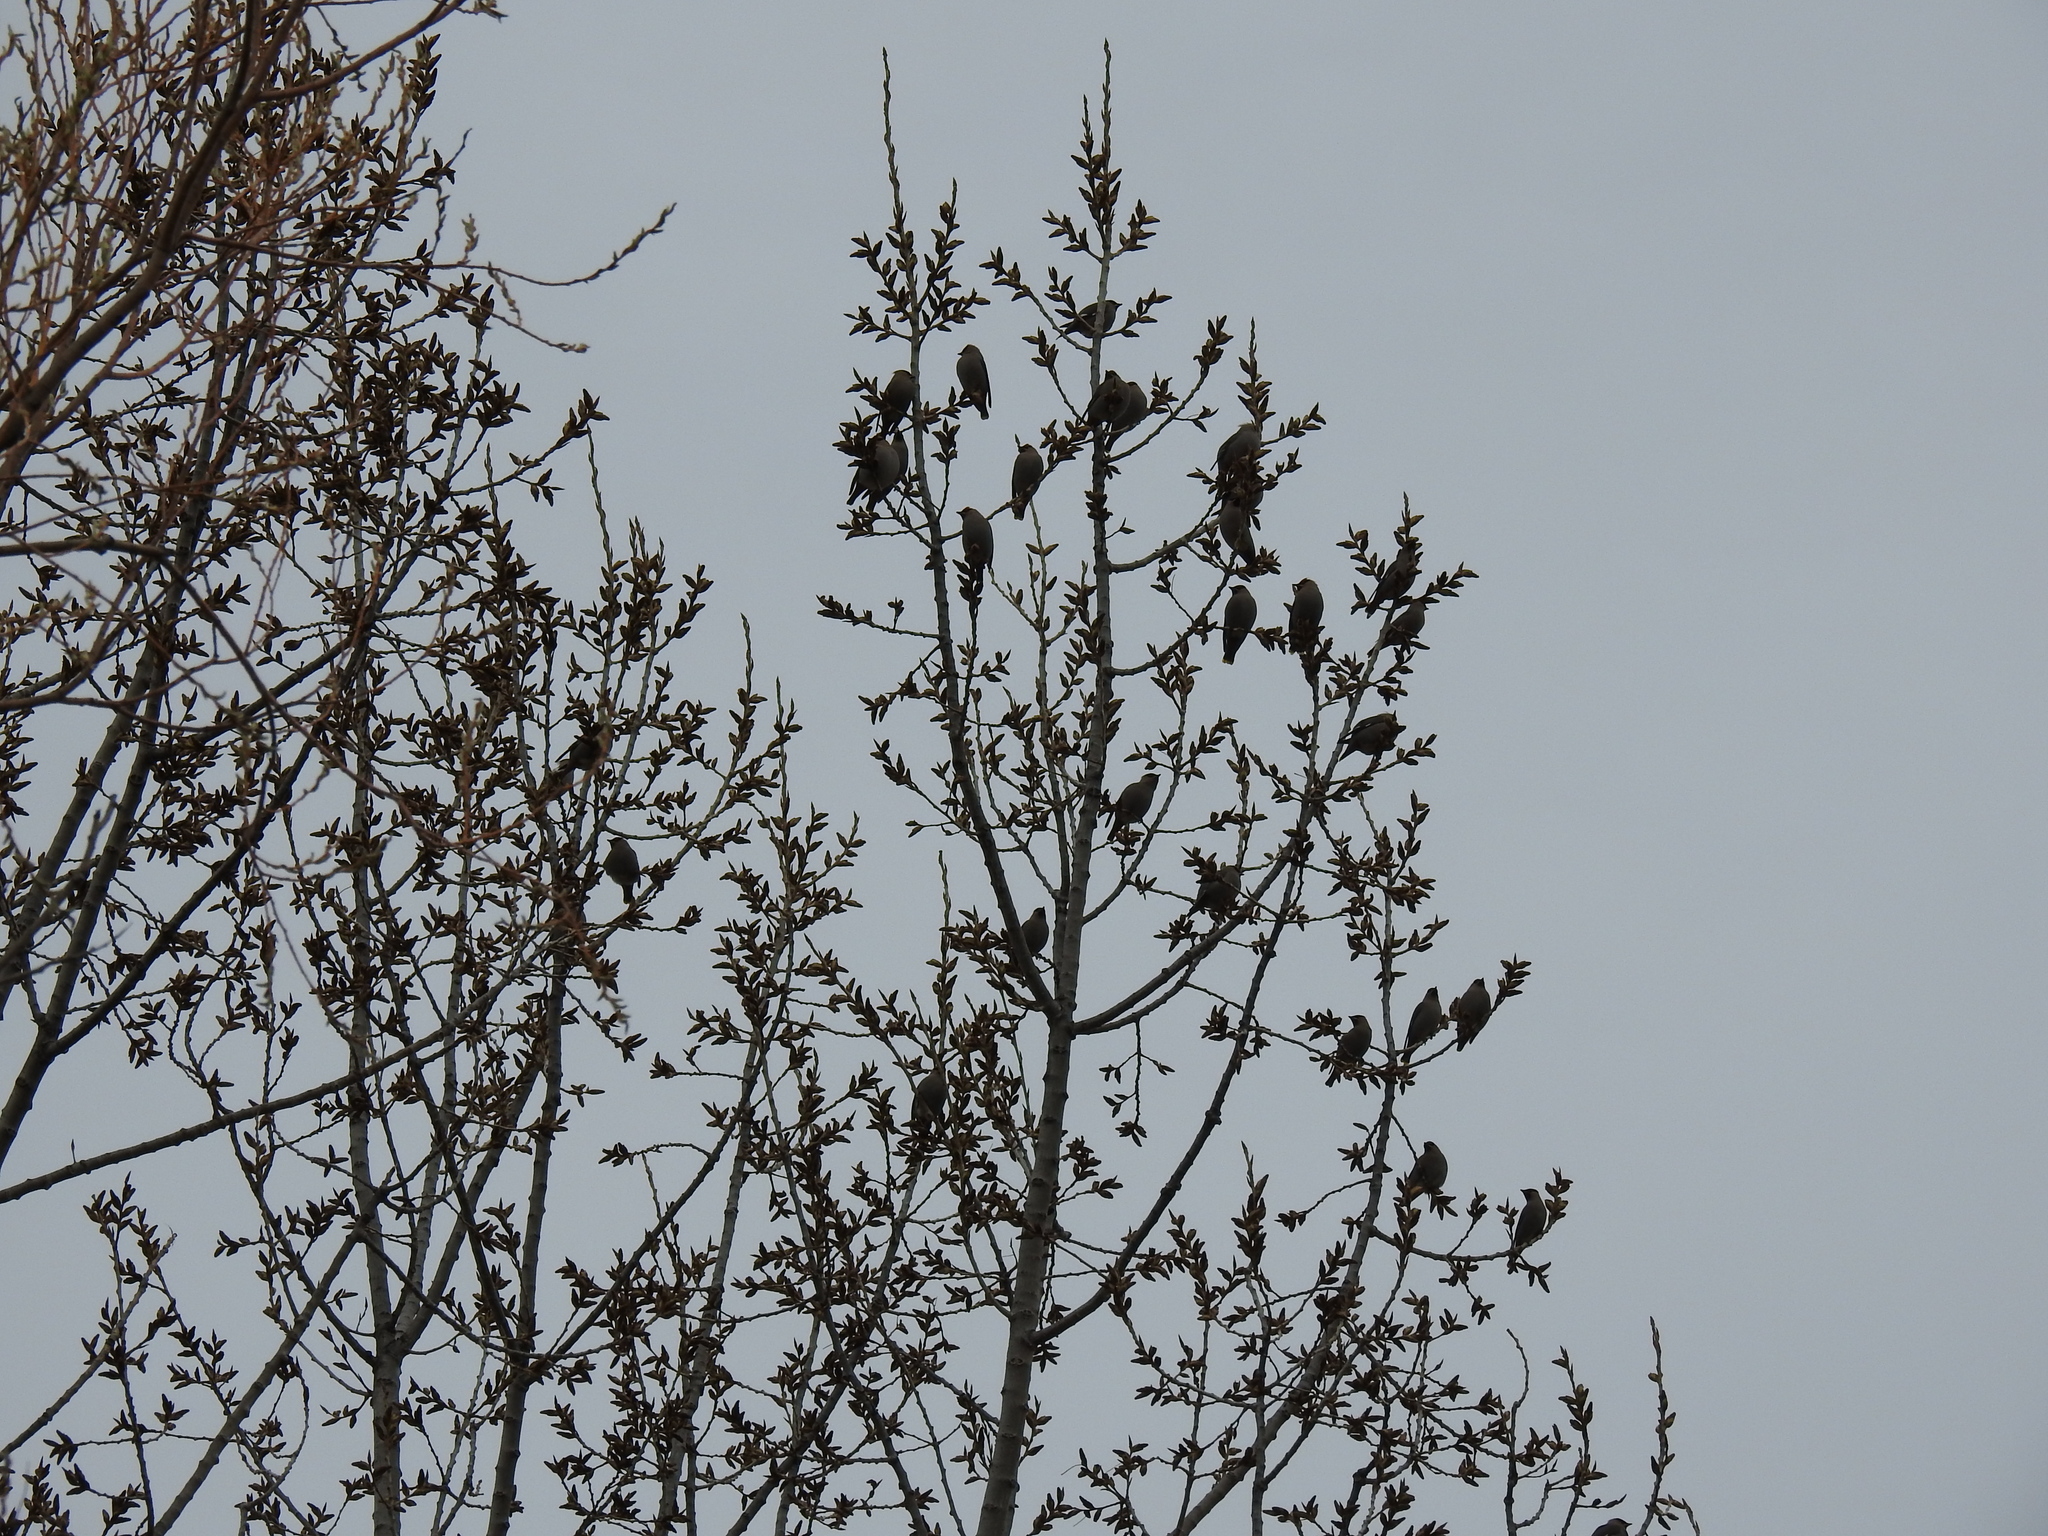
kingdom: Animalia
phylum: Chordata
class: Aves
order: Passeriformes
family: Bombycillidae
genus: Bombycilla
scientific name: Bombycilla garrulus
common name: Bohemian waxwing
